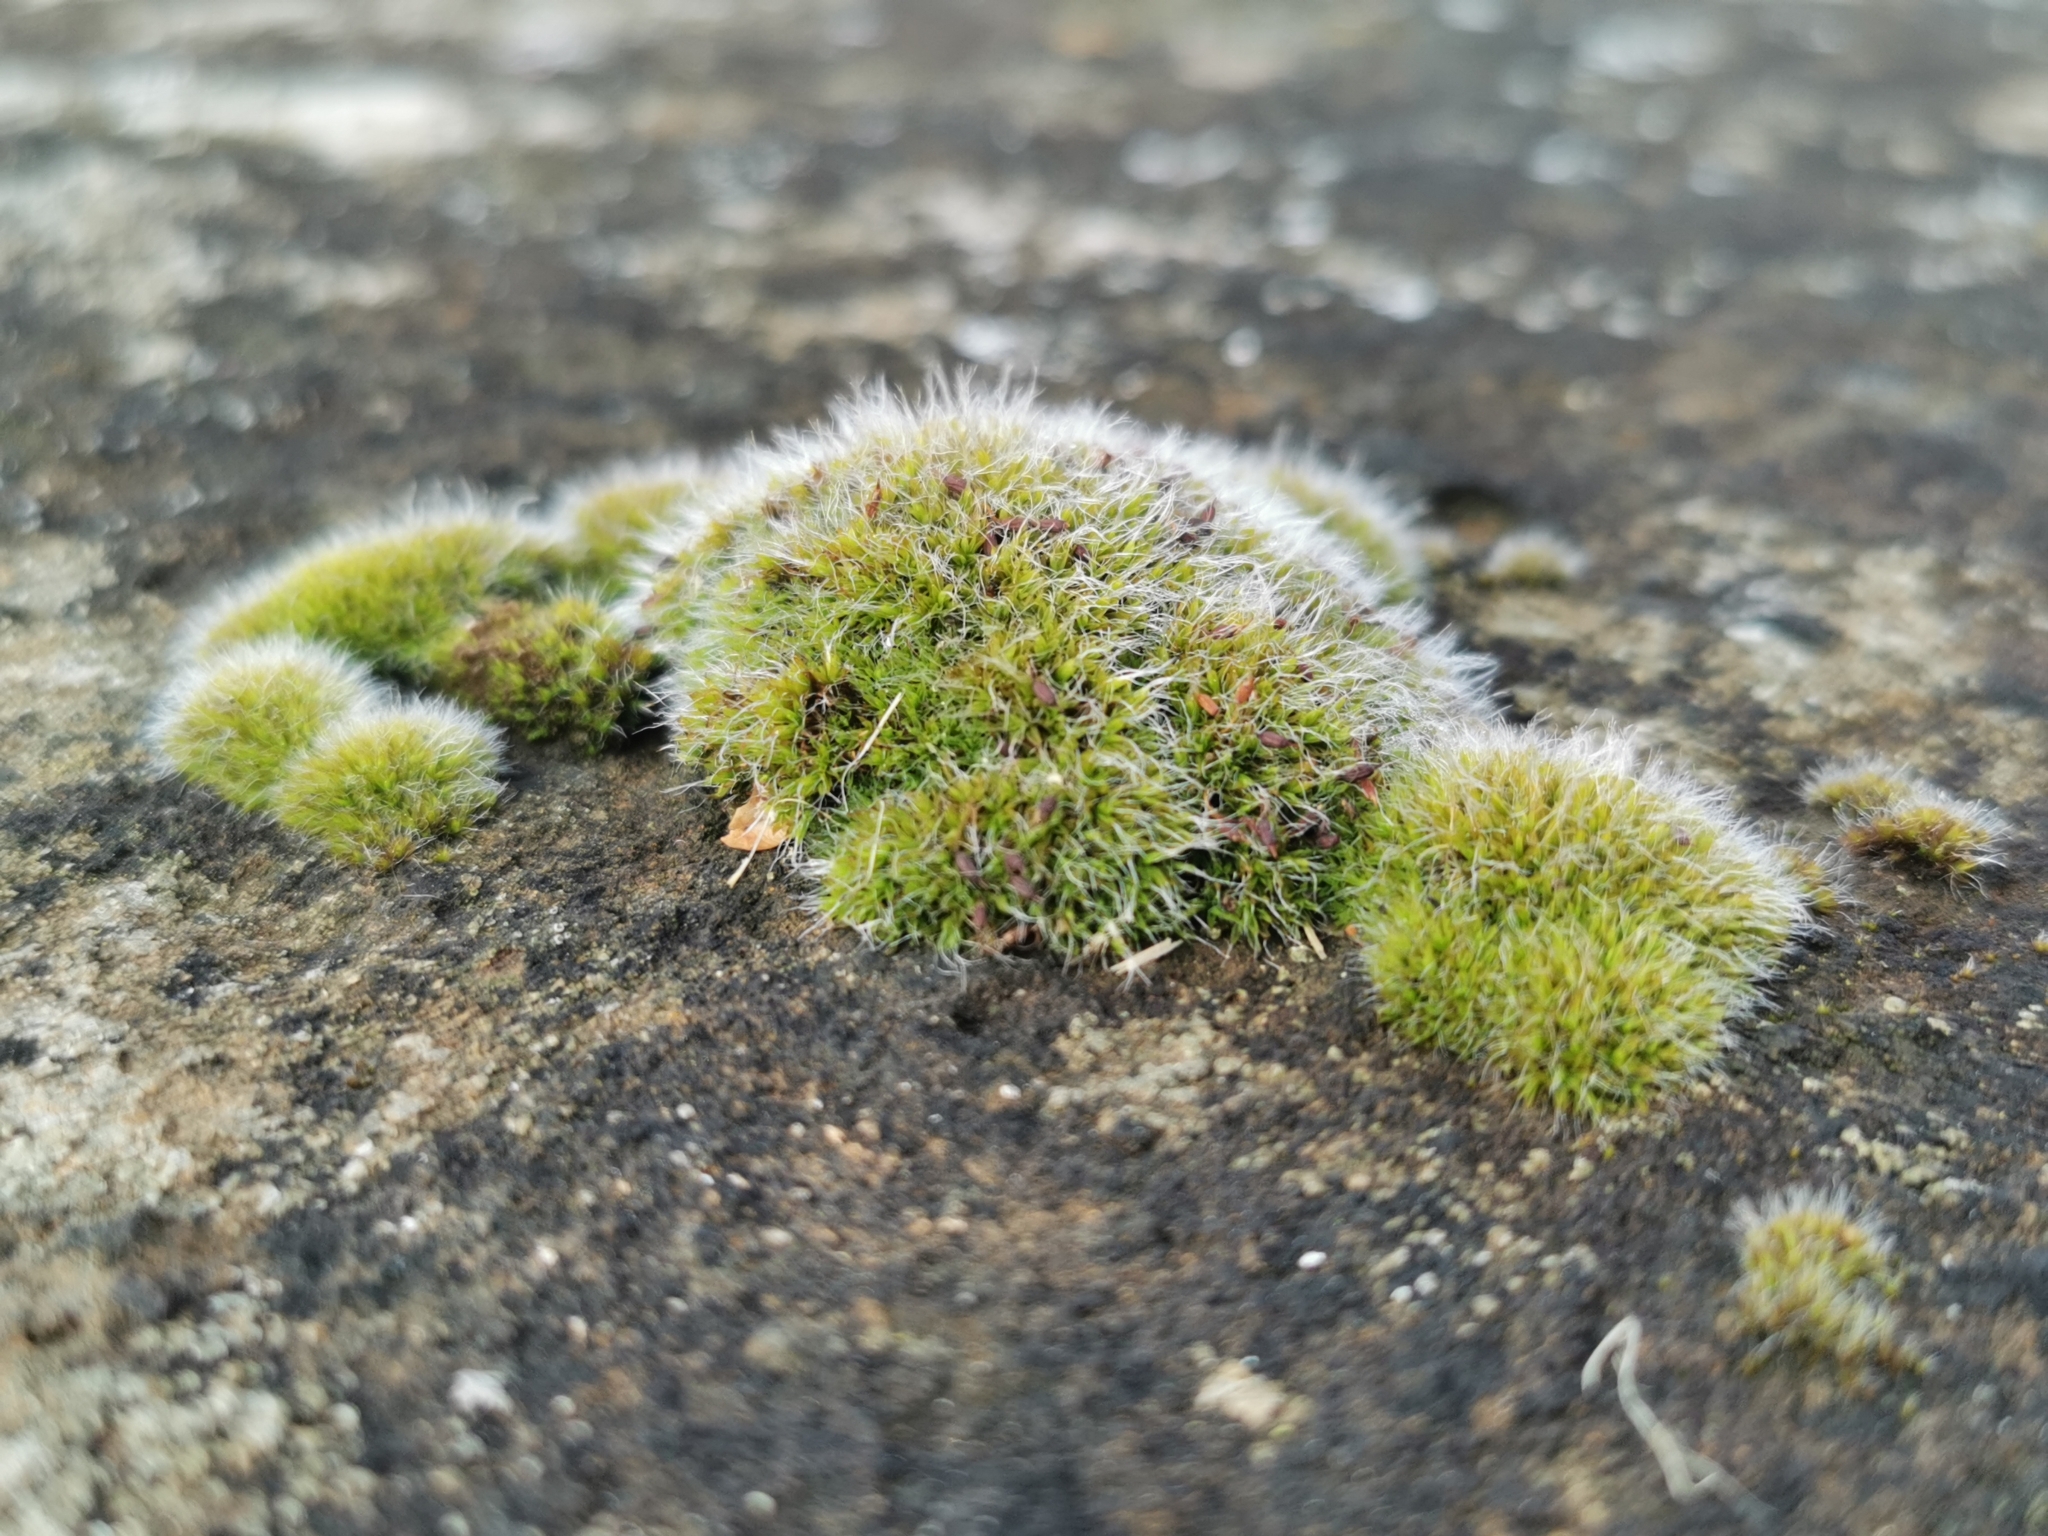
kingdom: Plantae
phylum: Bryophyta
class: Bryopsida
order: Grimmiales
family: Grimmiaceae
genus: Grimmia
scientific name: Grimmia pulvinata
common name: Grey-cushioned grimmia
